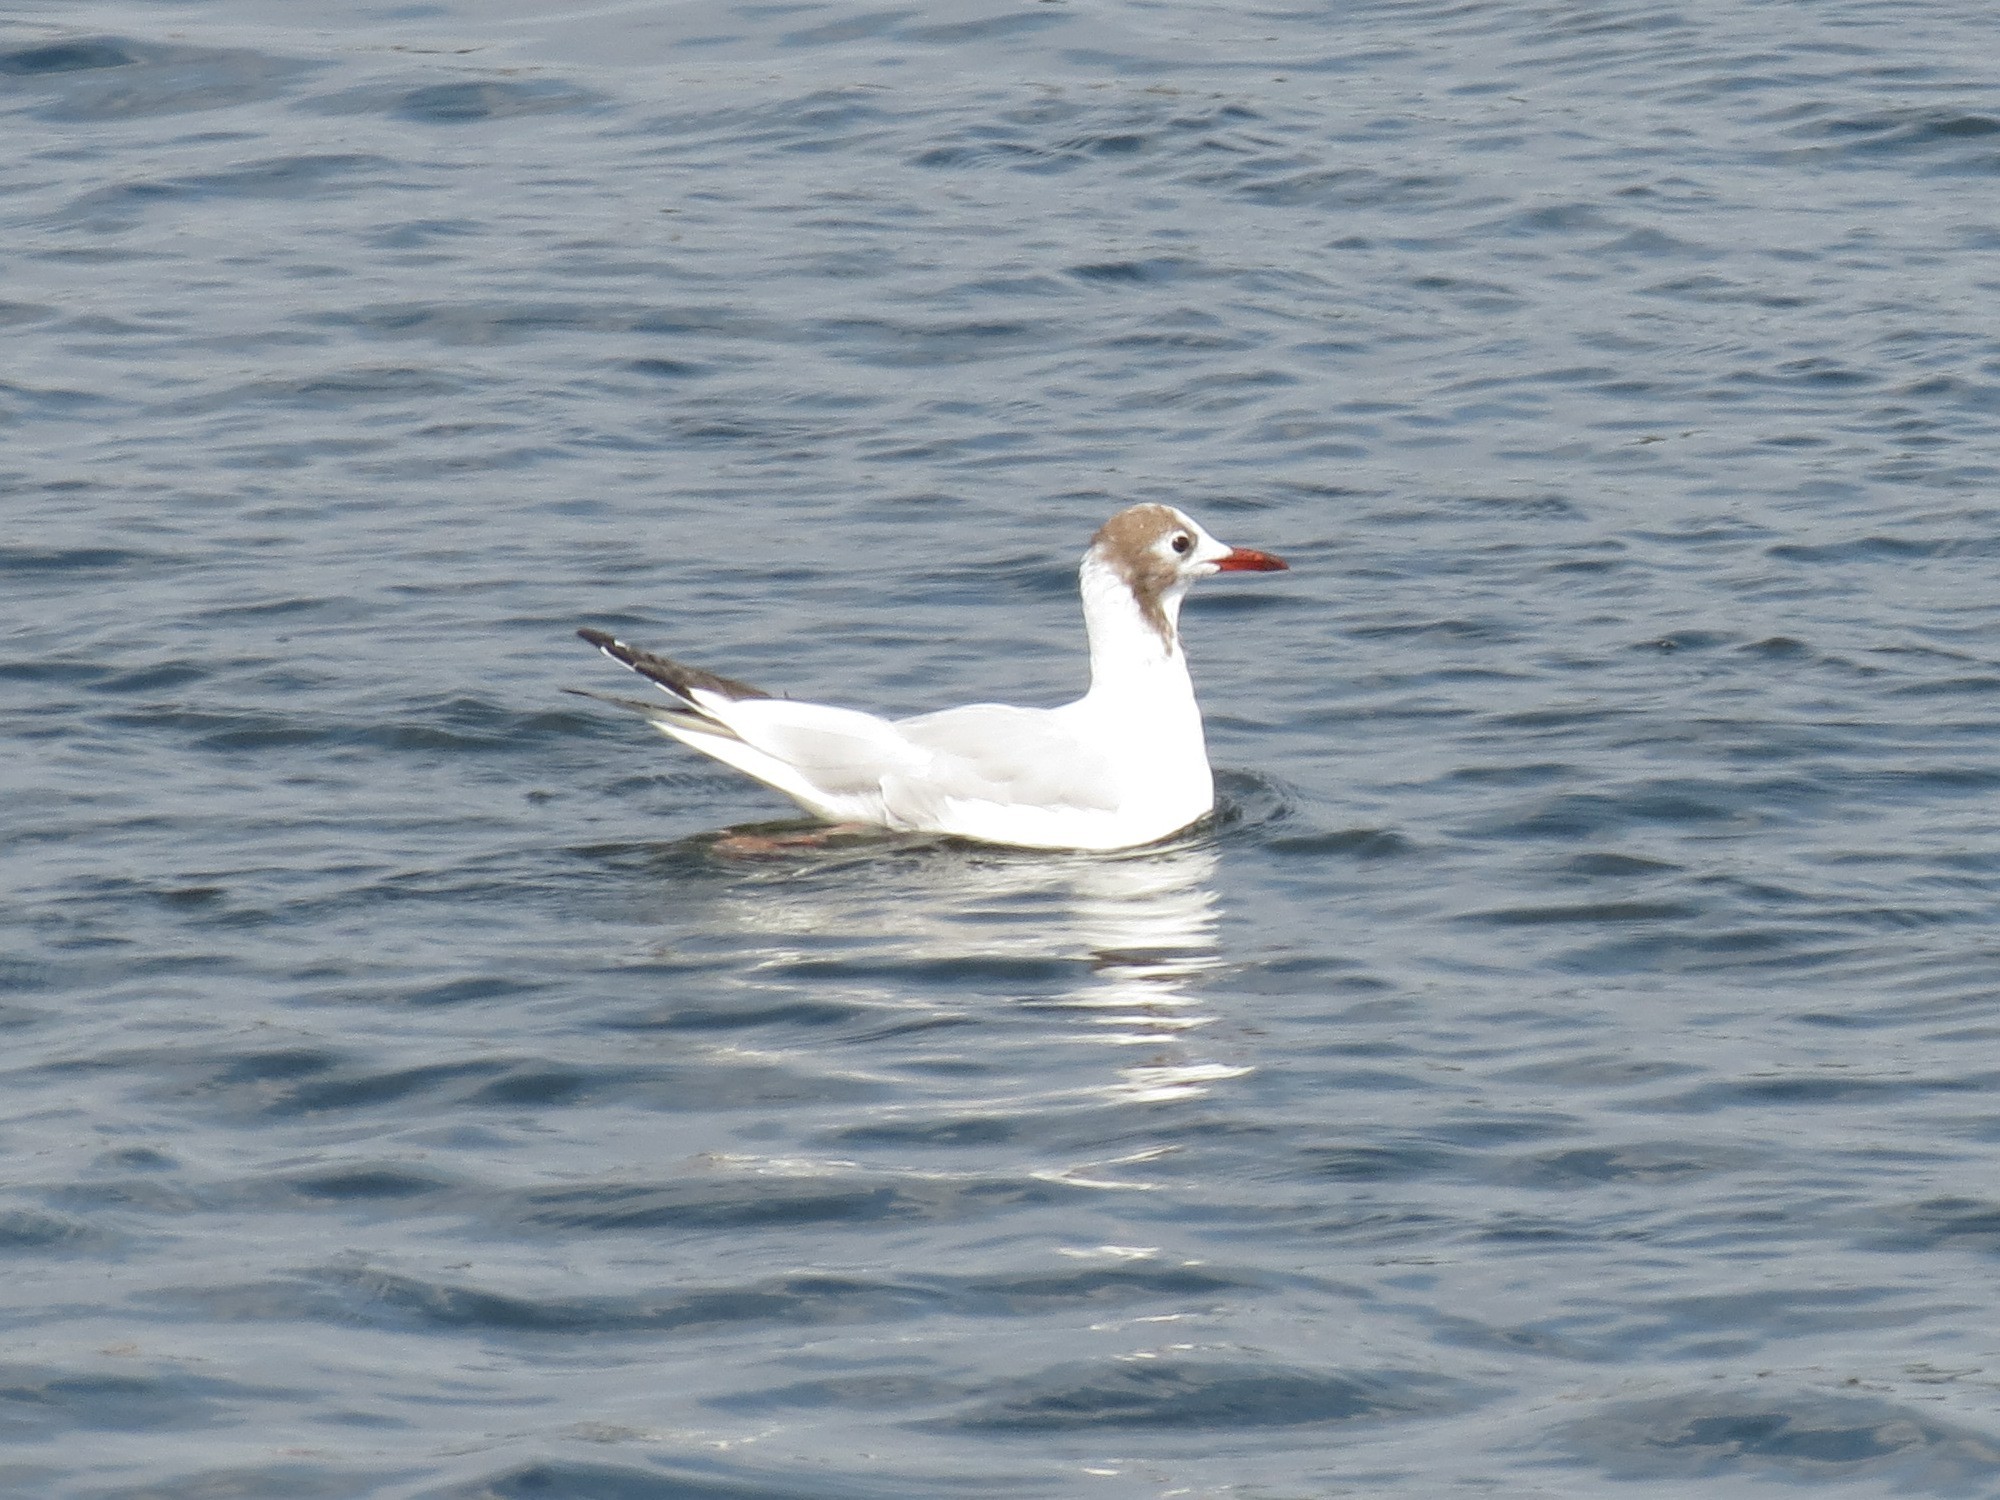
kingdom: Animalia
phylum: Chordata
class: Aves
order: Charadriiformes
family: Laridae
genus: Chroicocephalus
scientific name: Chroicocephalus ridibundus
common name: Black-headed gull
